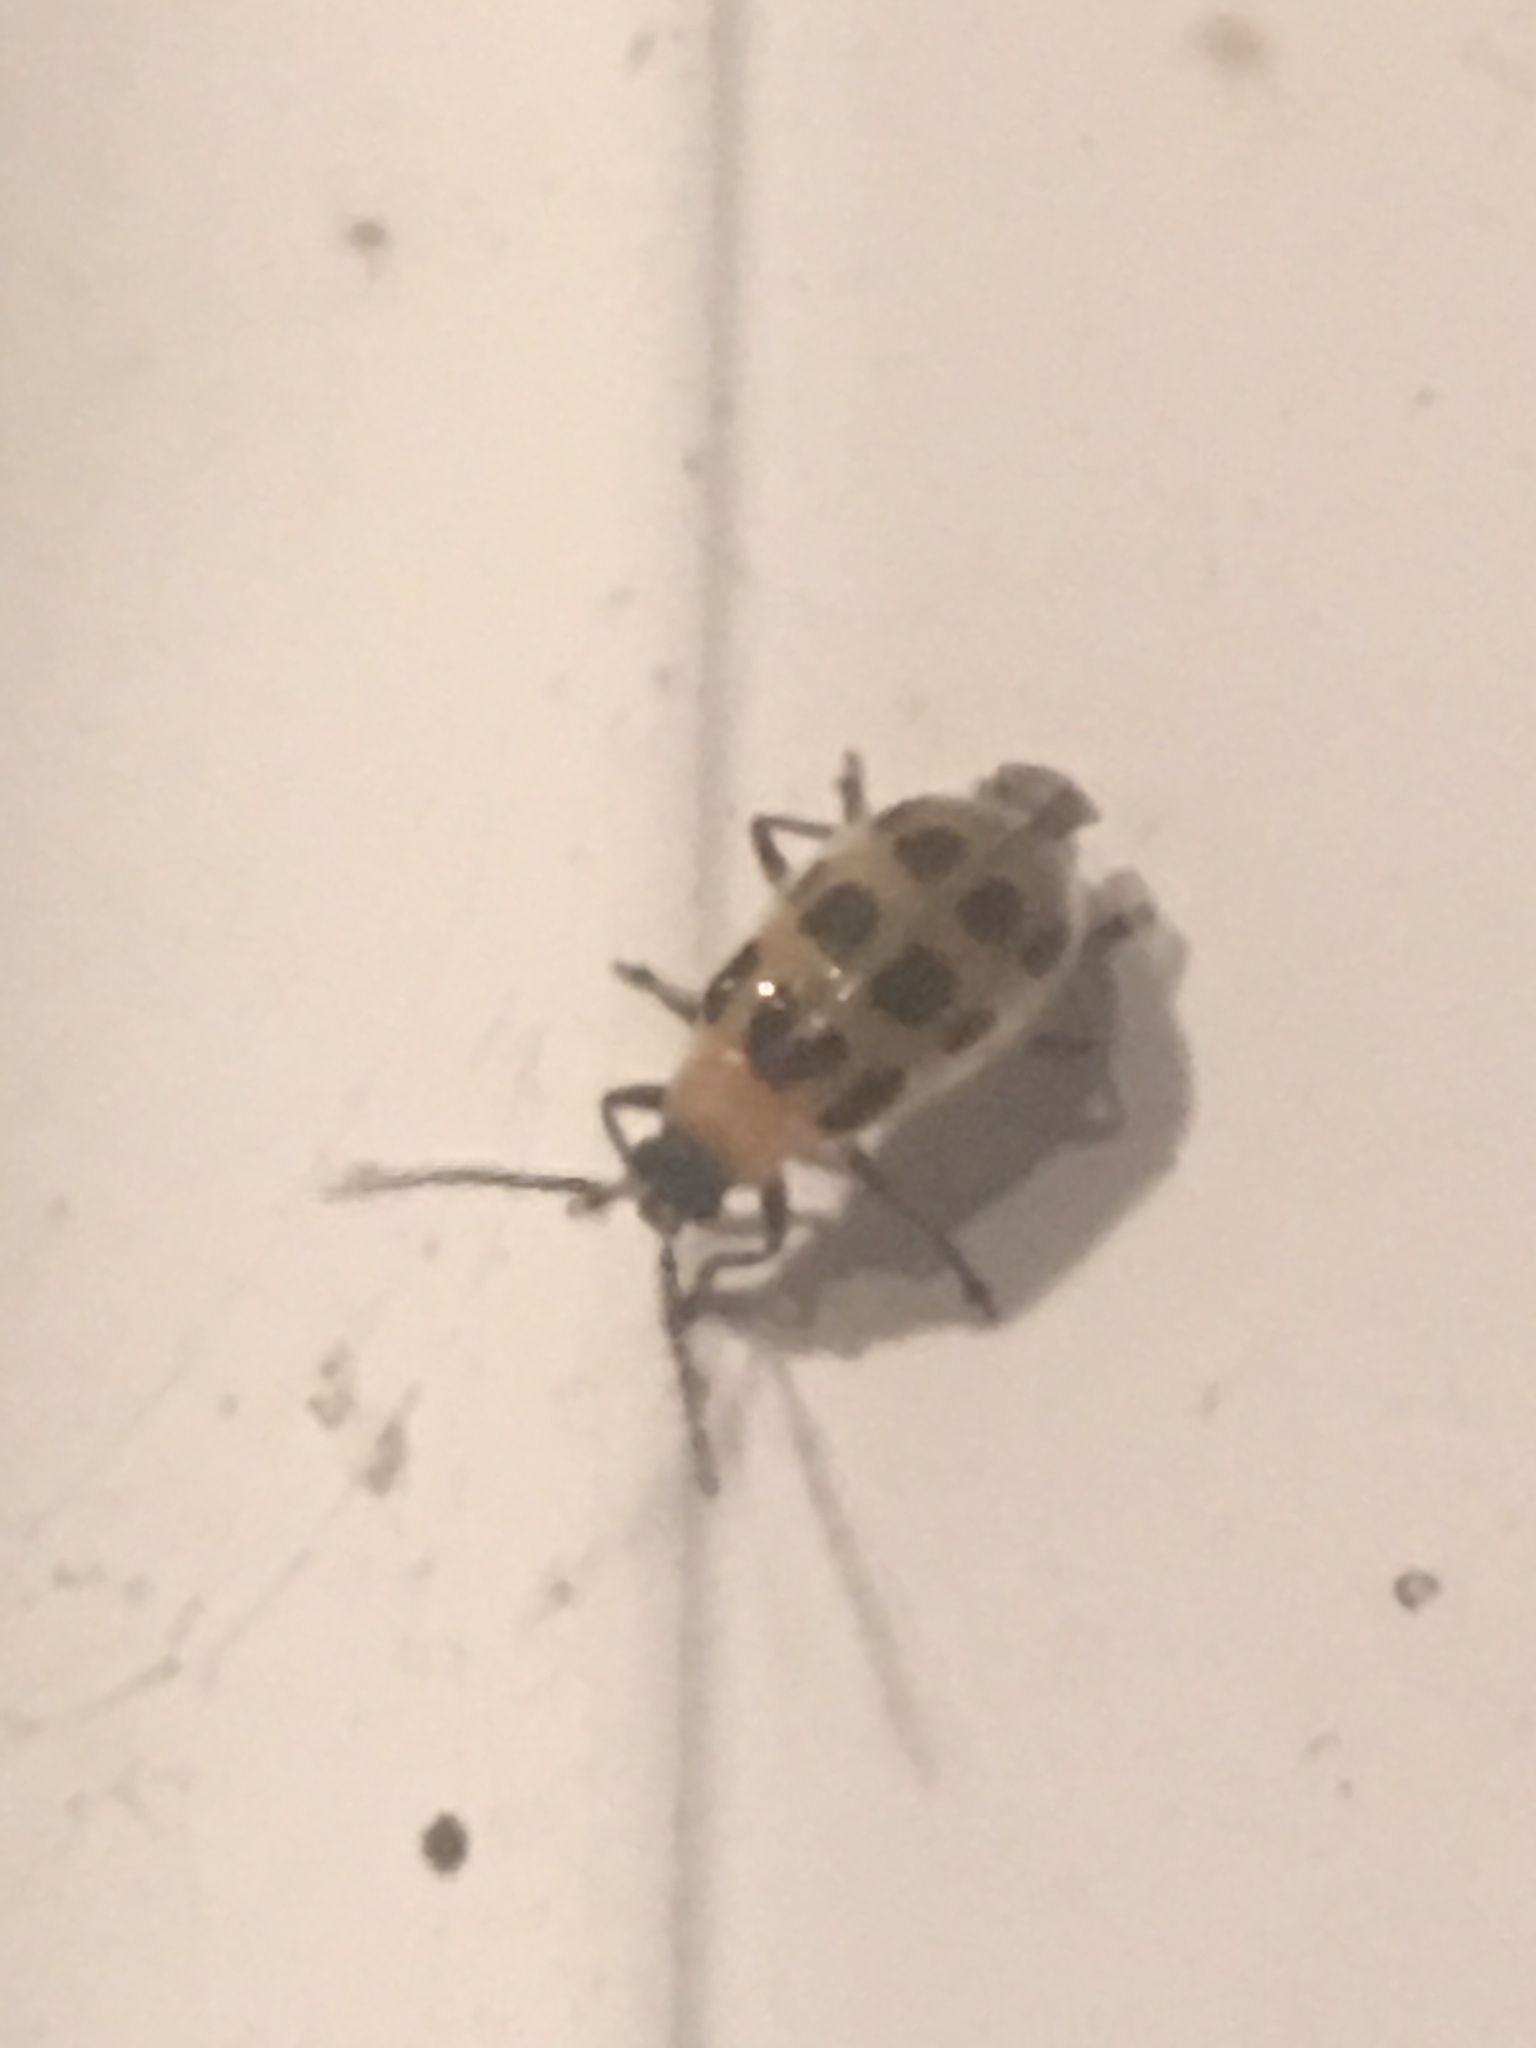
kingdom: Animalia
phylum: Arthropoda
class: Insecta
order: Coleoptera
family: Chrysomelidae
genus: Diabrotica
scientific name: Diabrotica undecimpunctata
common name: Spotted cucumber beetle
